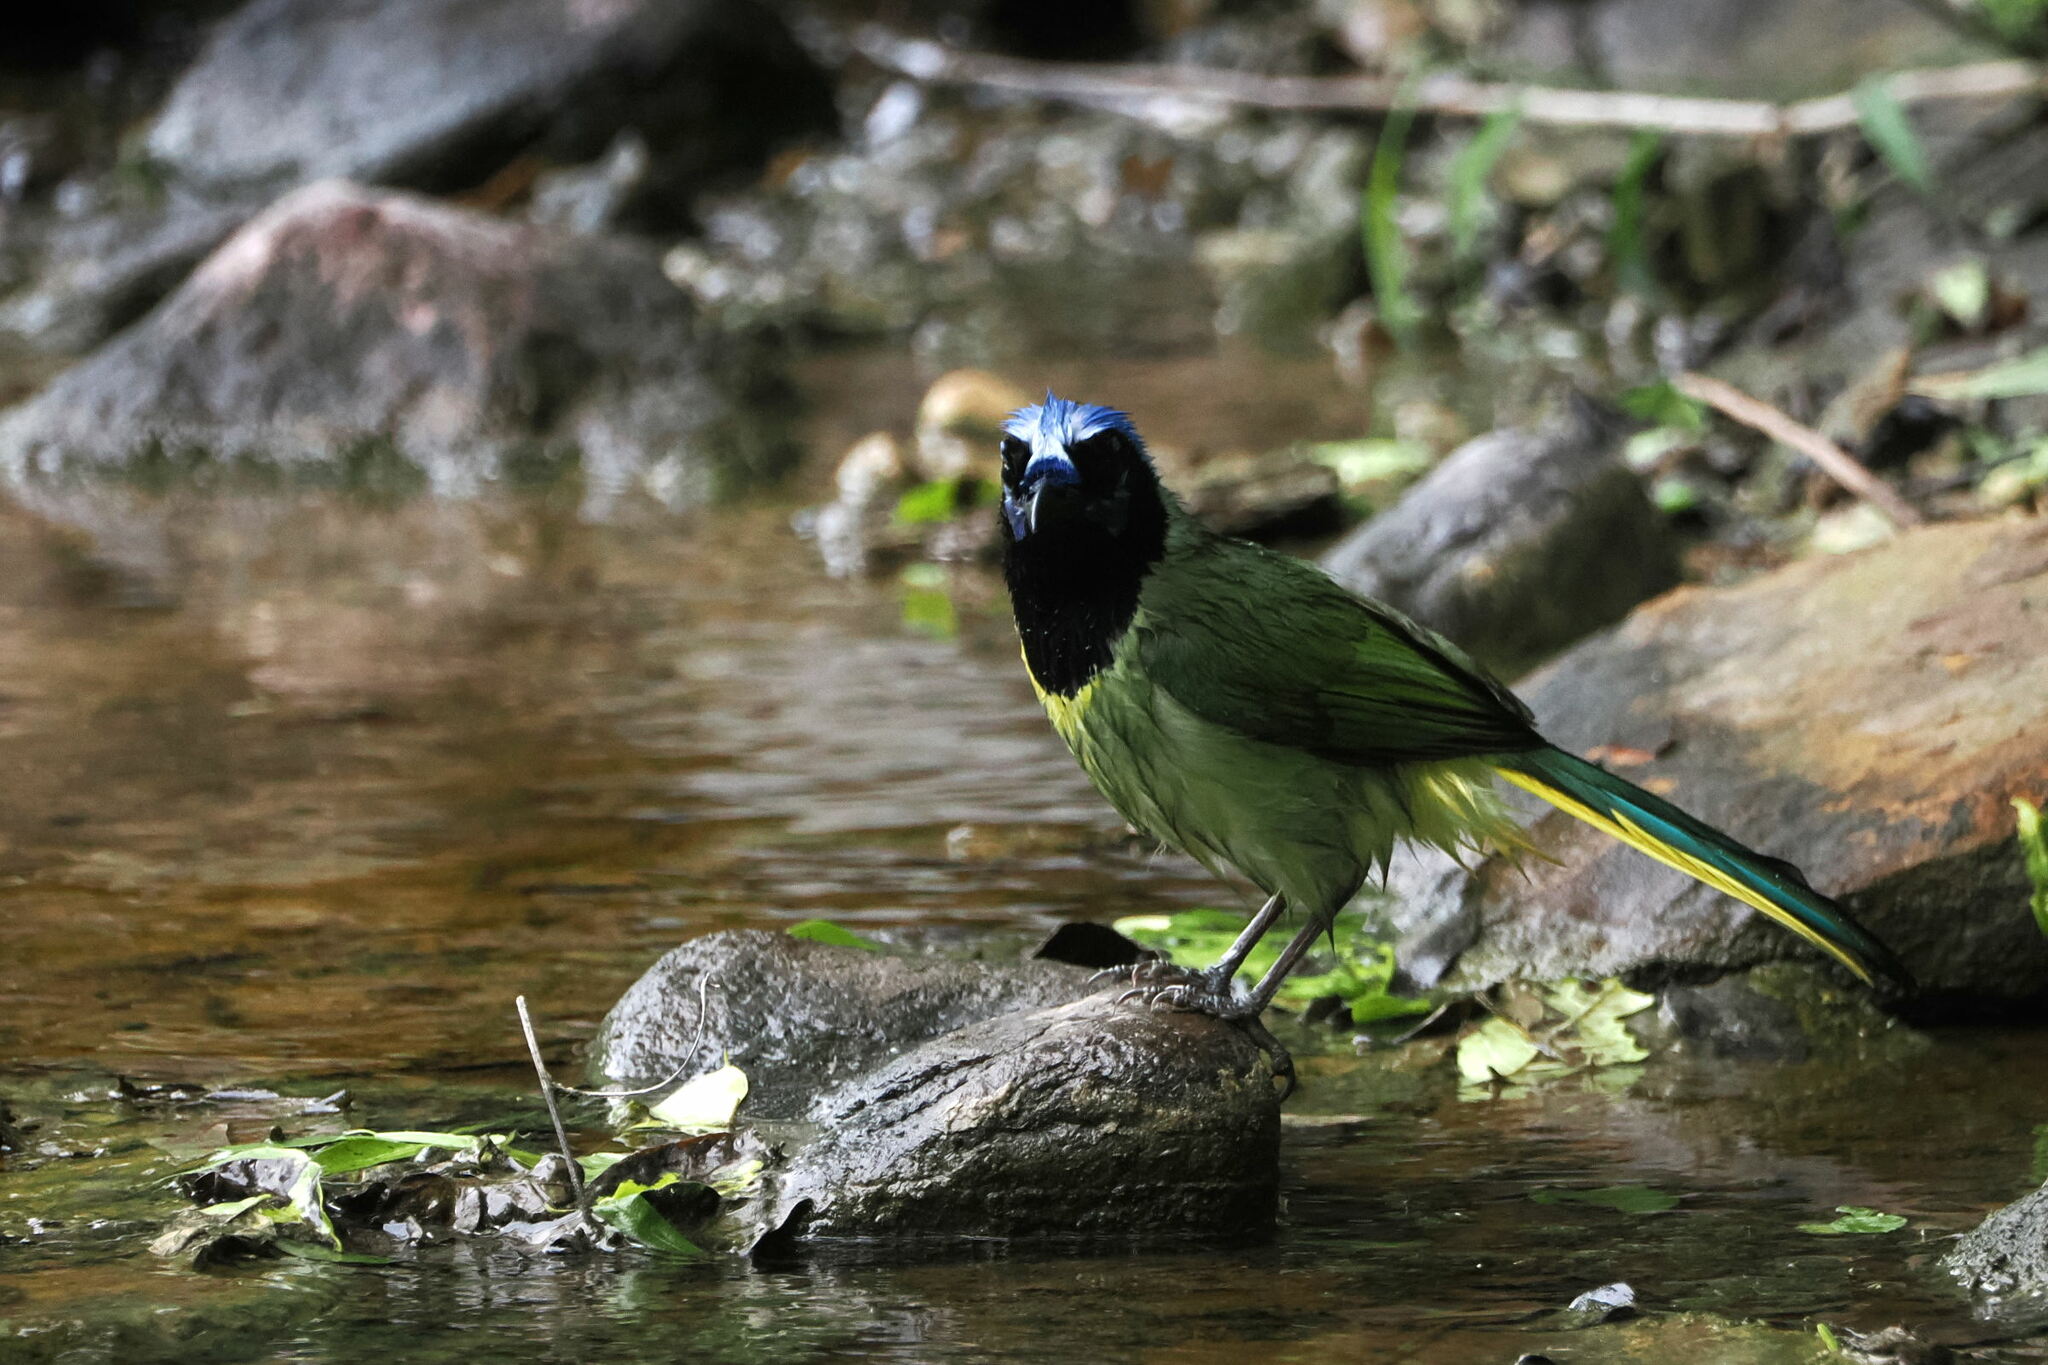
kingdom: Animalia
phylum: Chordata
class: Aves
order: Passeriformes
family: Corvidae
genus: Cyanocorax
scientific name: Cyanocorax yncas
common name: Green jay
